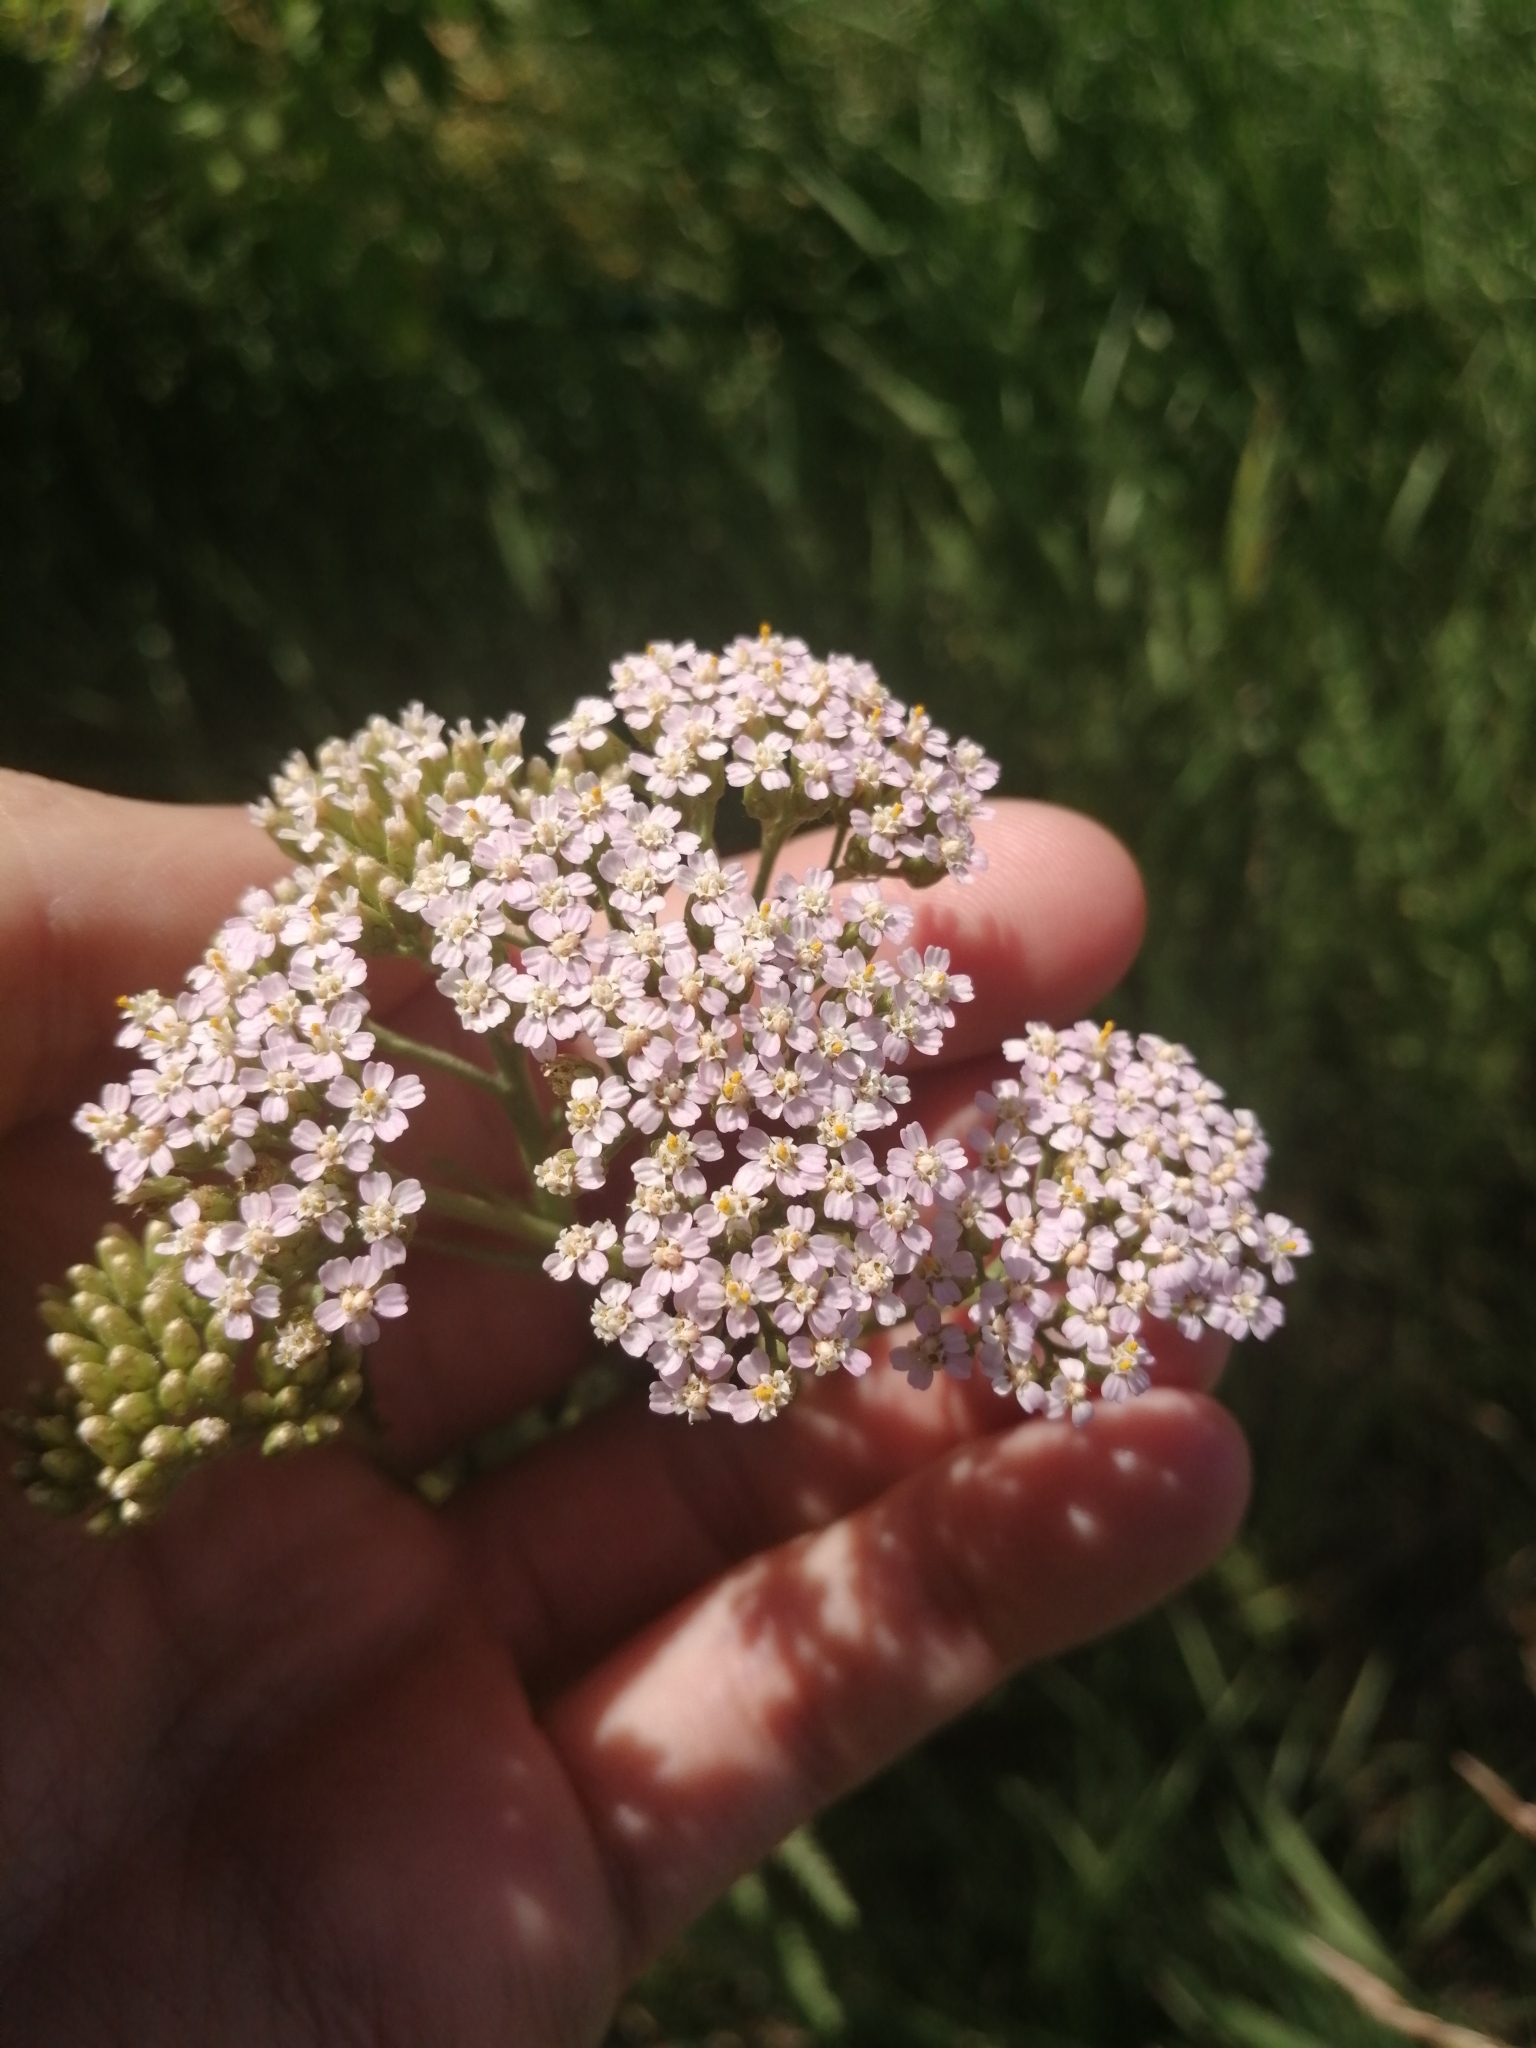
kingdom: Plantae
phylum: Tracheophyta
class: Magnoliopsida
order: Asterales
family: Asteraceae
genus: Achillea
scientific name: Achillea asiatica
